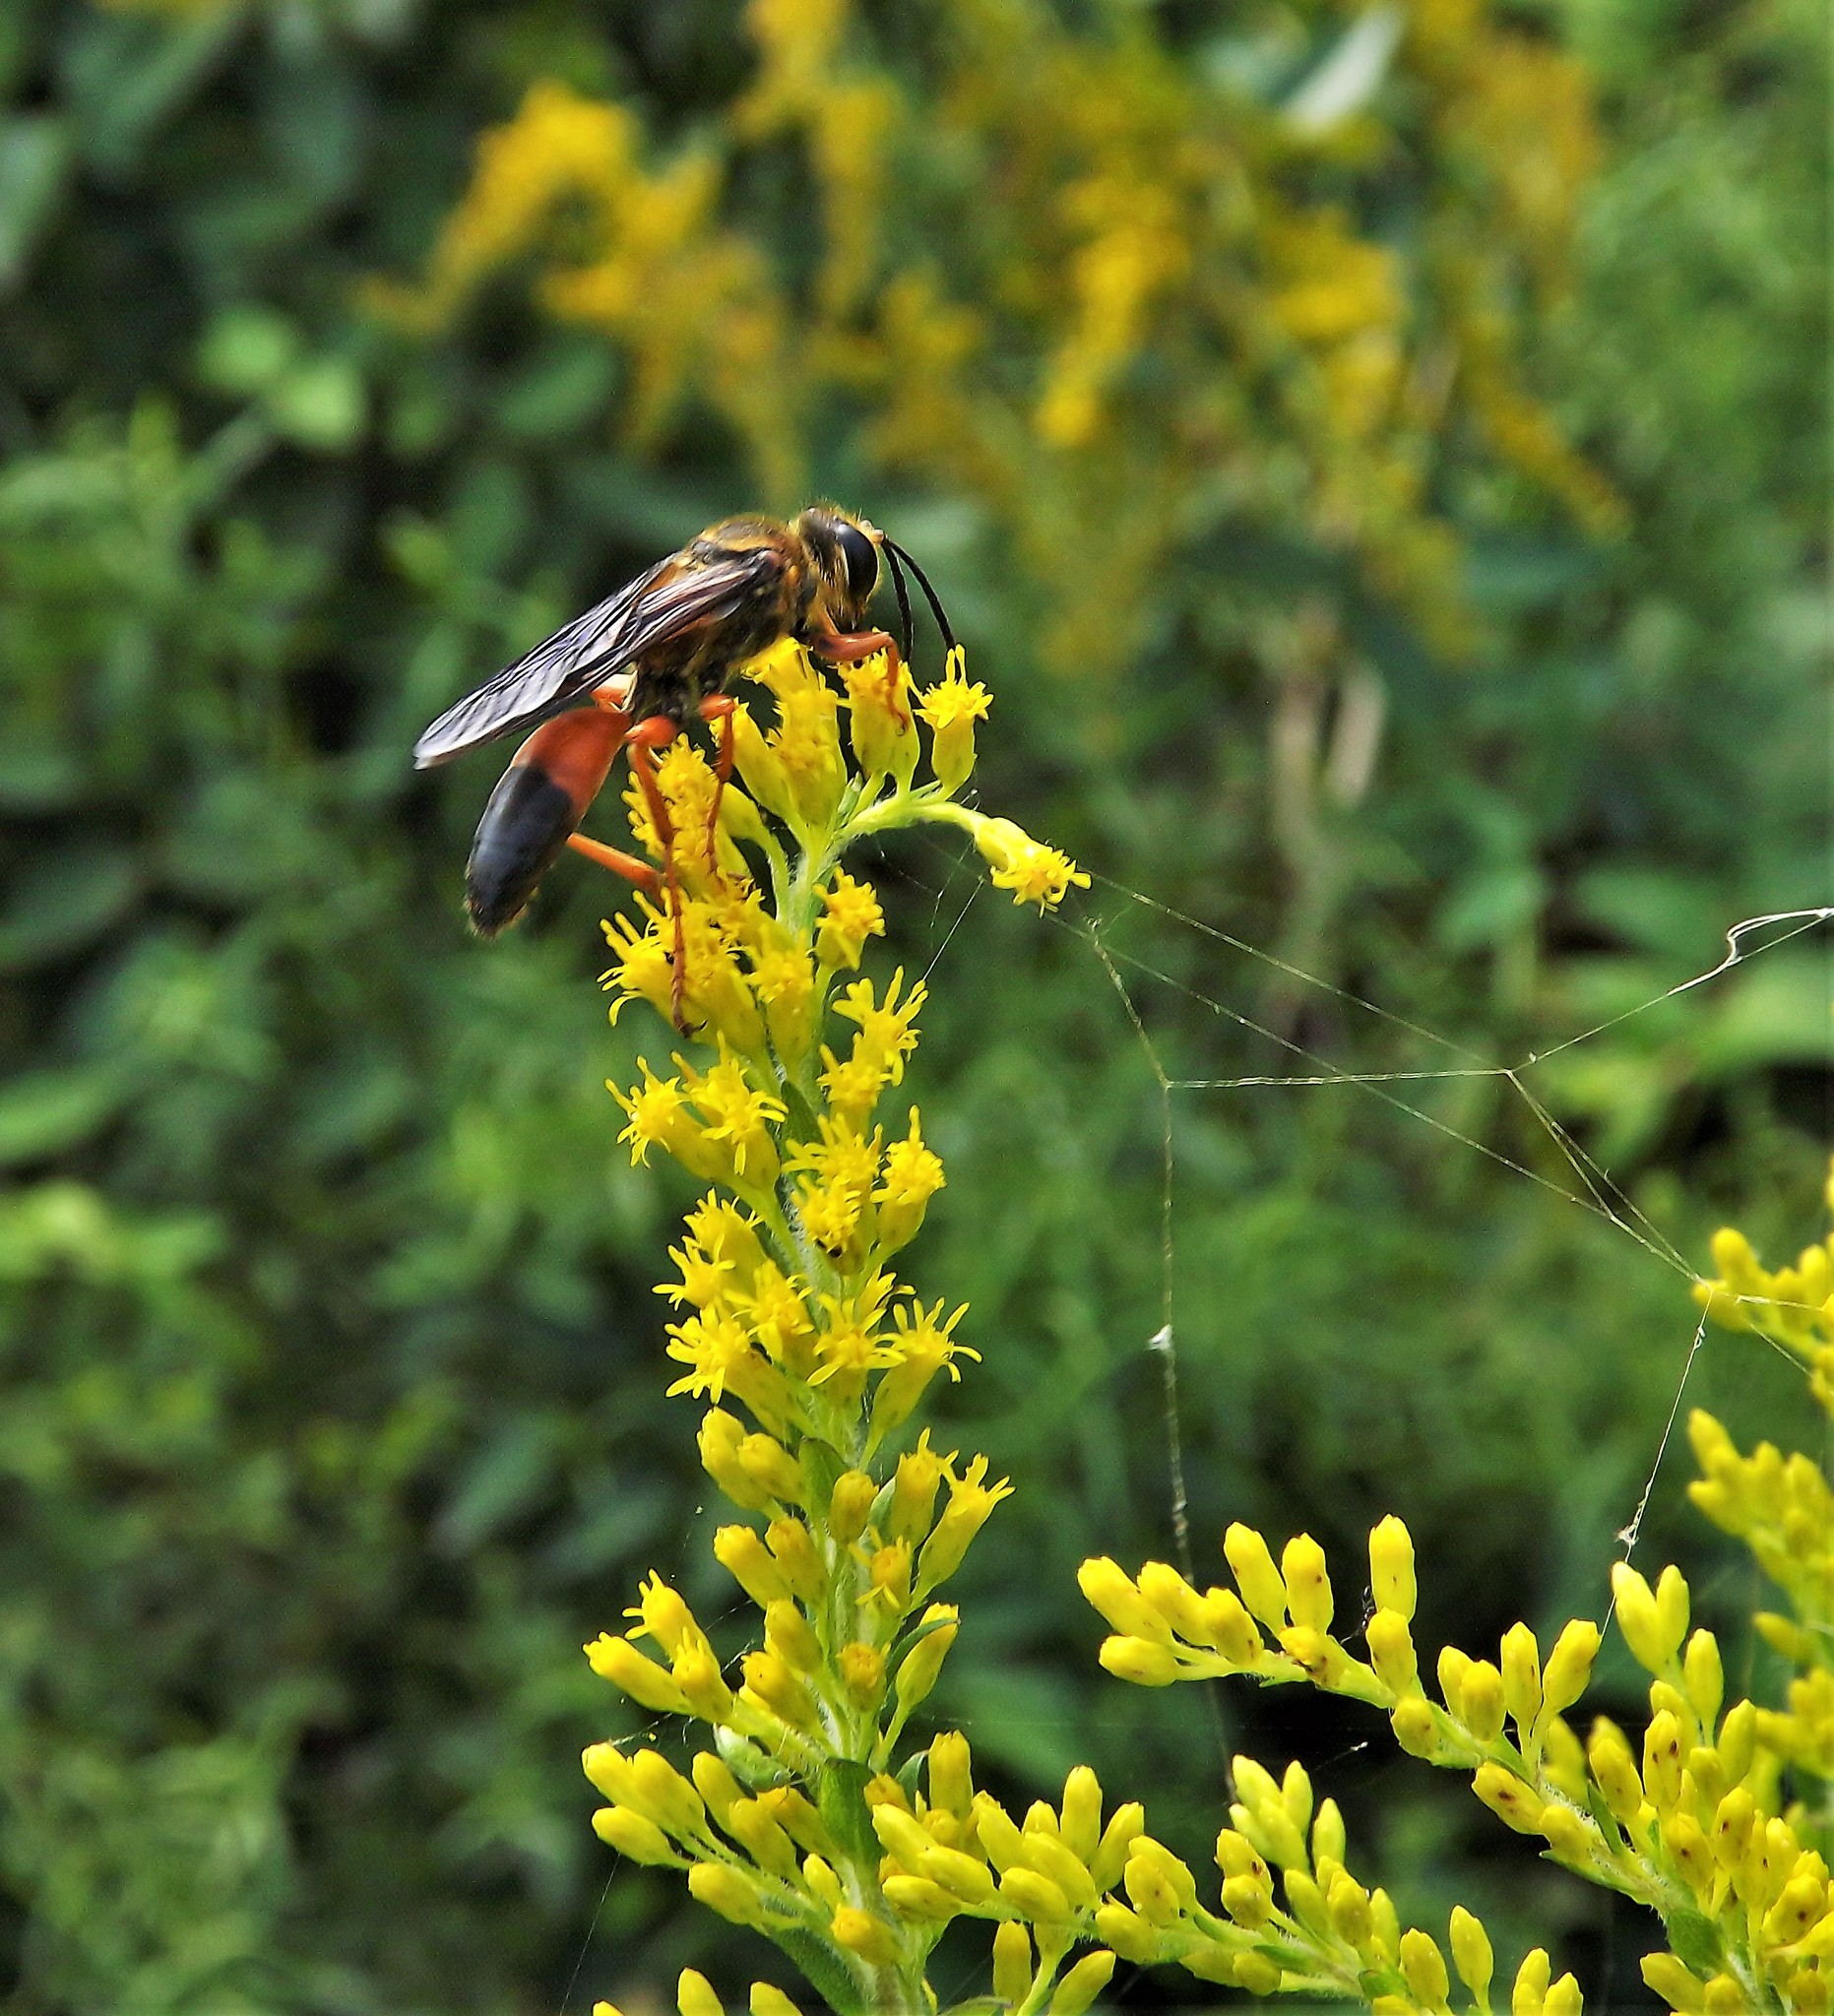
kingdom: Animalia
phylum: Arthropoda
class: Insecta
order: Hymenoptera
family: Sphecidae
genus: Sphex
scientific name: Sphex ichneumoneus
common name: Great golden digger wasp
